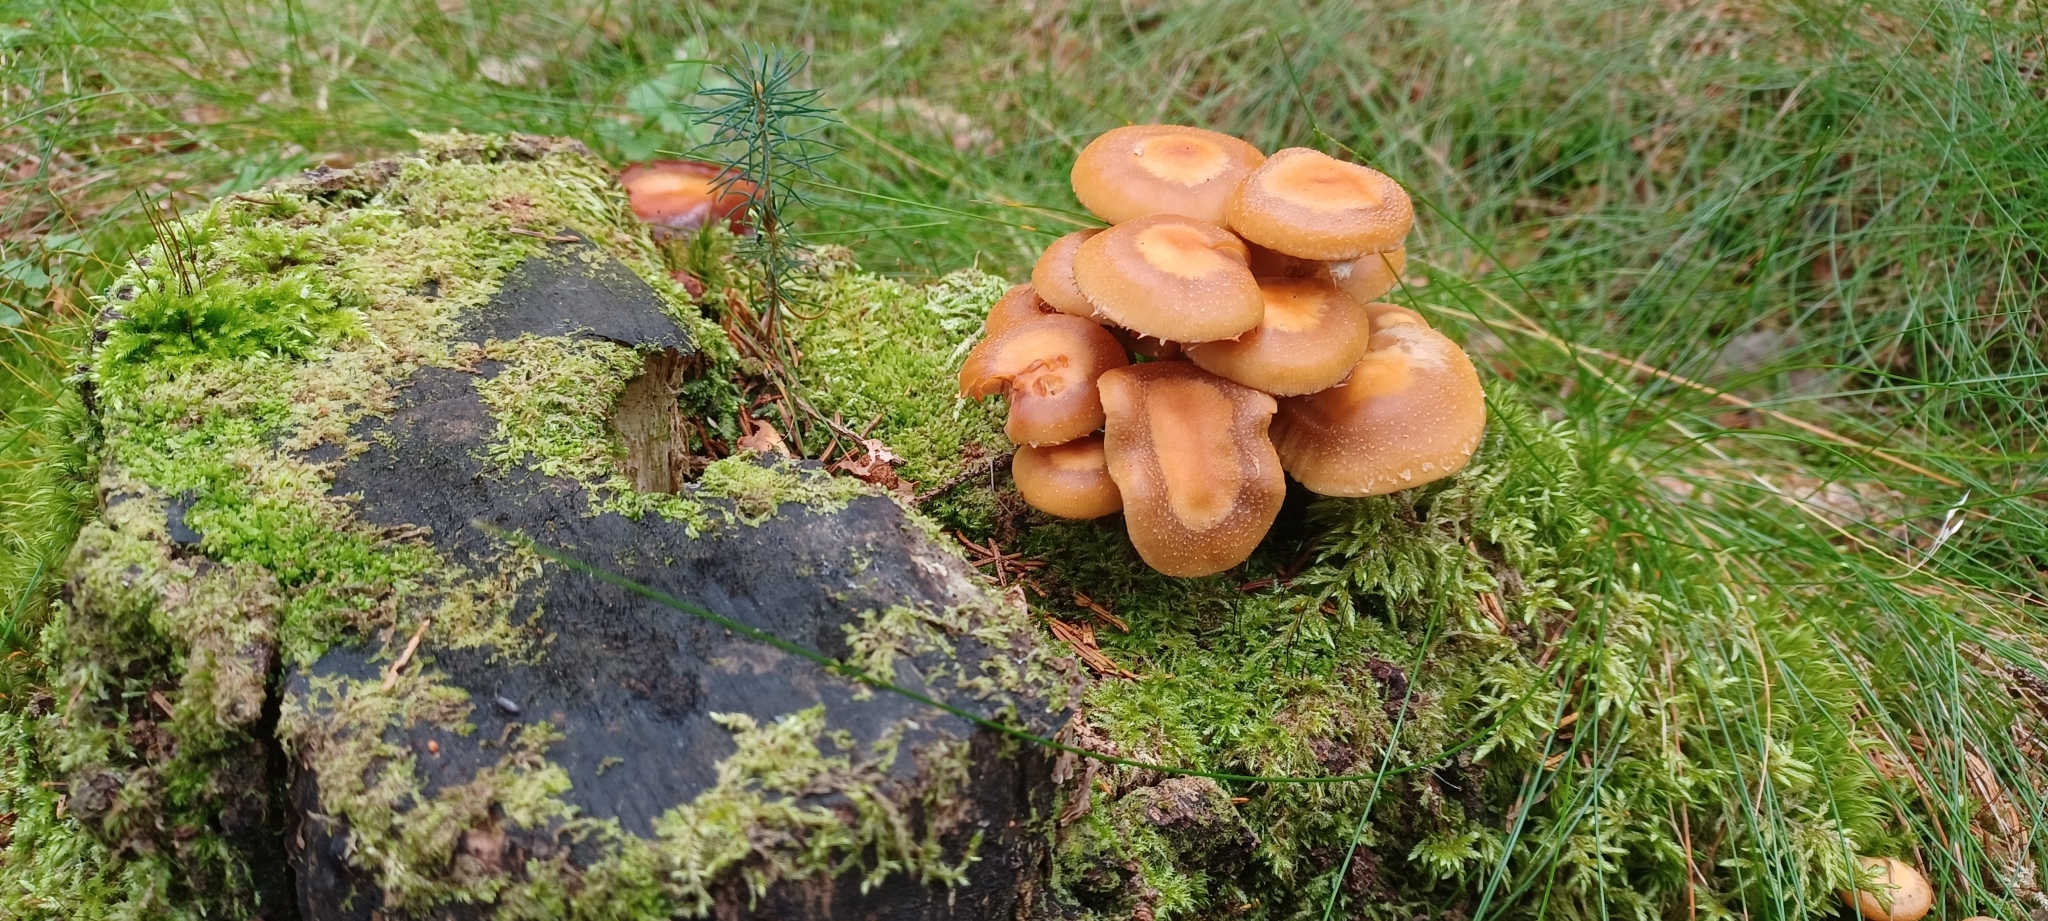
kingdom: Fungi
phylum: Basidiomycota
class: Agaricomycetes
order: Agaricales
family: Strophariaceae
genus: Kuehneromyces
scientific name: Kuehneromyces mutabilis
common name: Sheathed woodtuft
